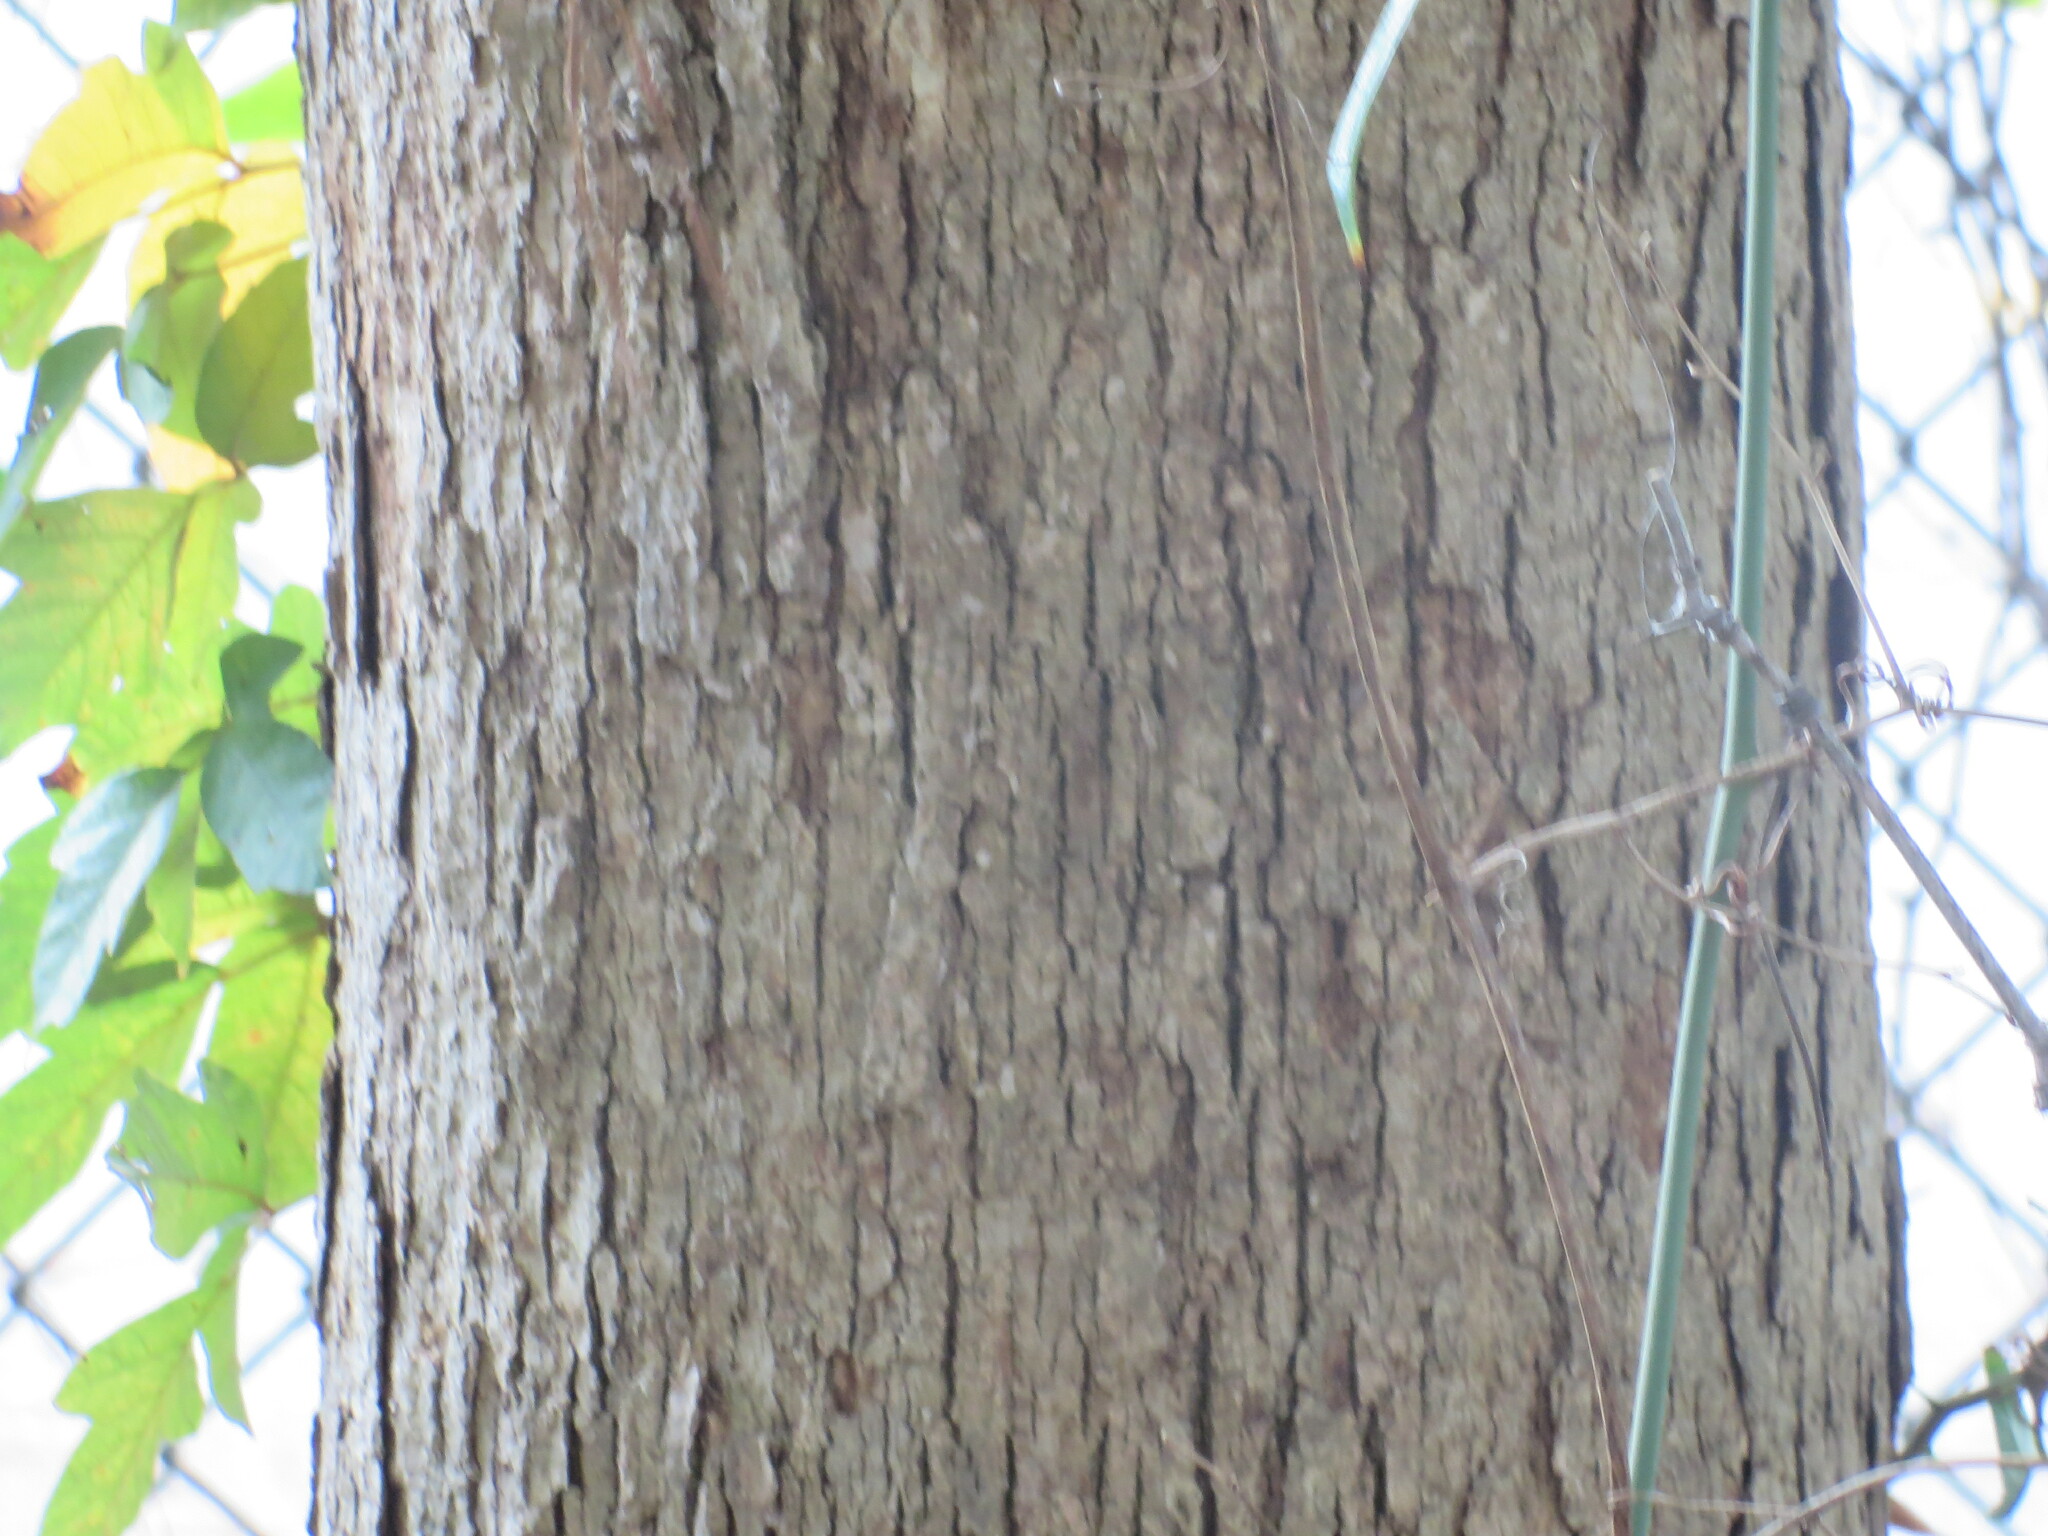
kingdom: Plantae
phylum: Tracheophyta
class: Magnoliopsida
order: Fagales
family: Fagaceae
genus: Quercus
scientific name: Quercus alba
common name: White oak
